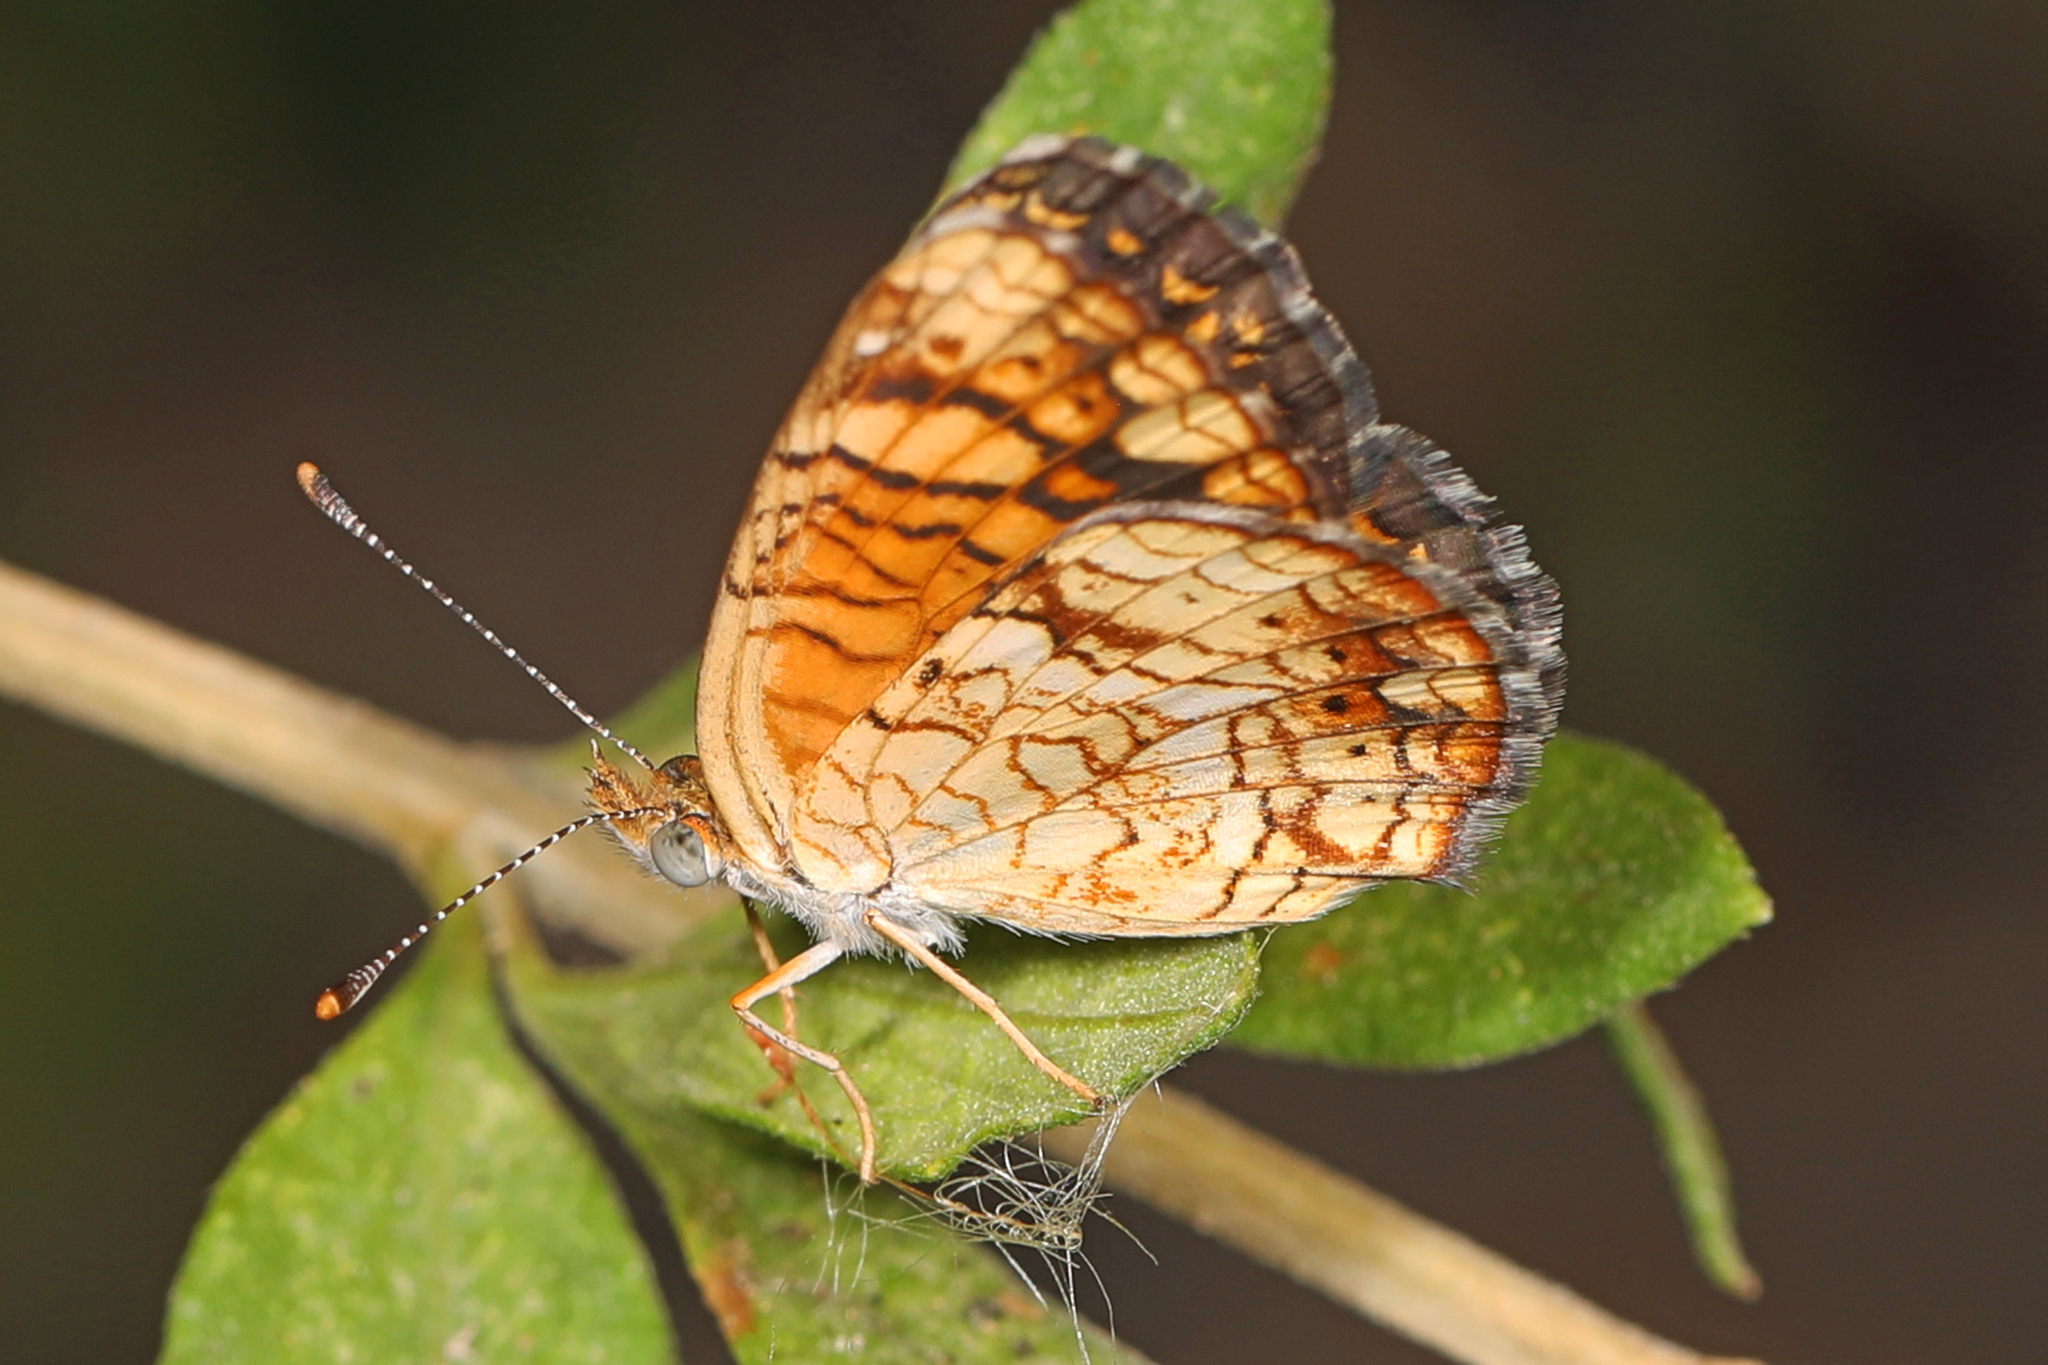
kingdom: Animalia
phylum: Arthropoda
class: Insecta
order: Lepidoptera
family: Nymphalidae
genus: Phyciodes
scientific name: Phyciodes vesta
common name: Vesta crescent
